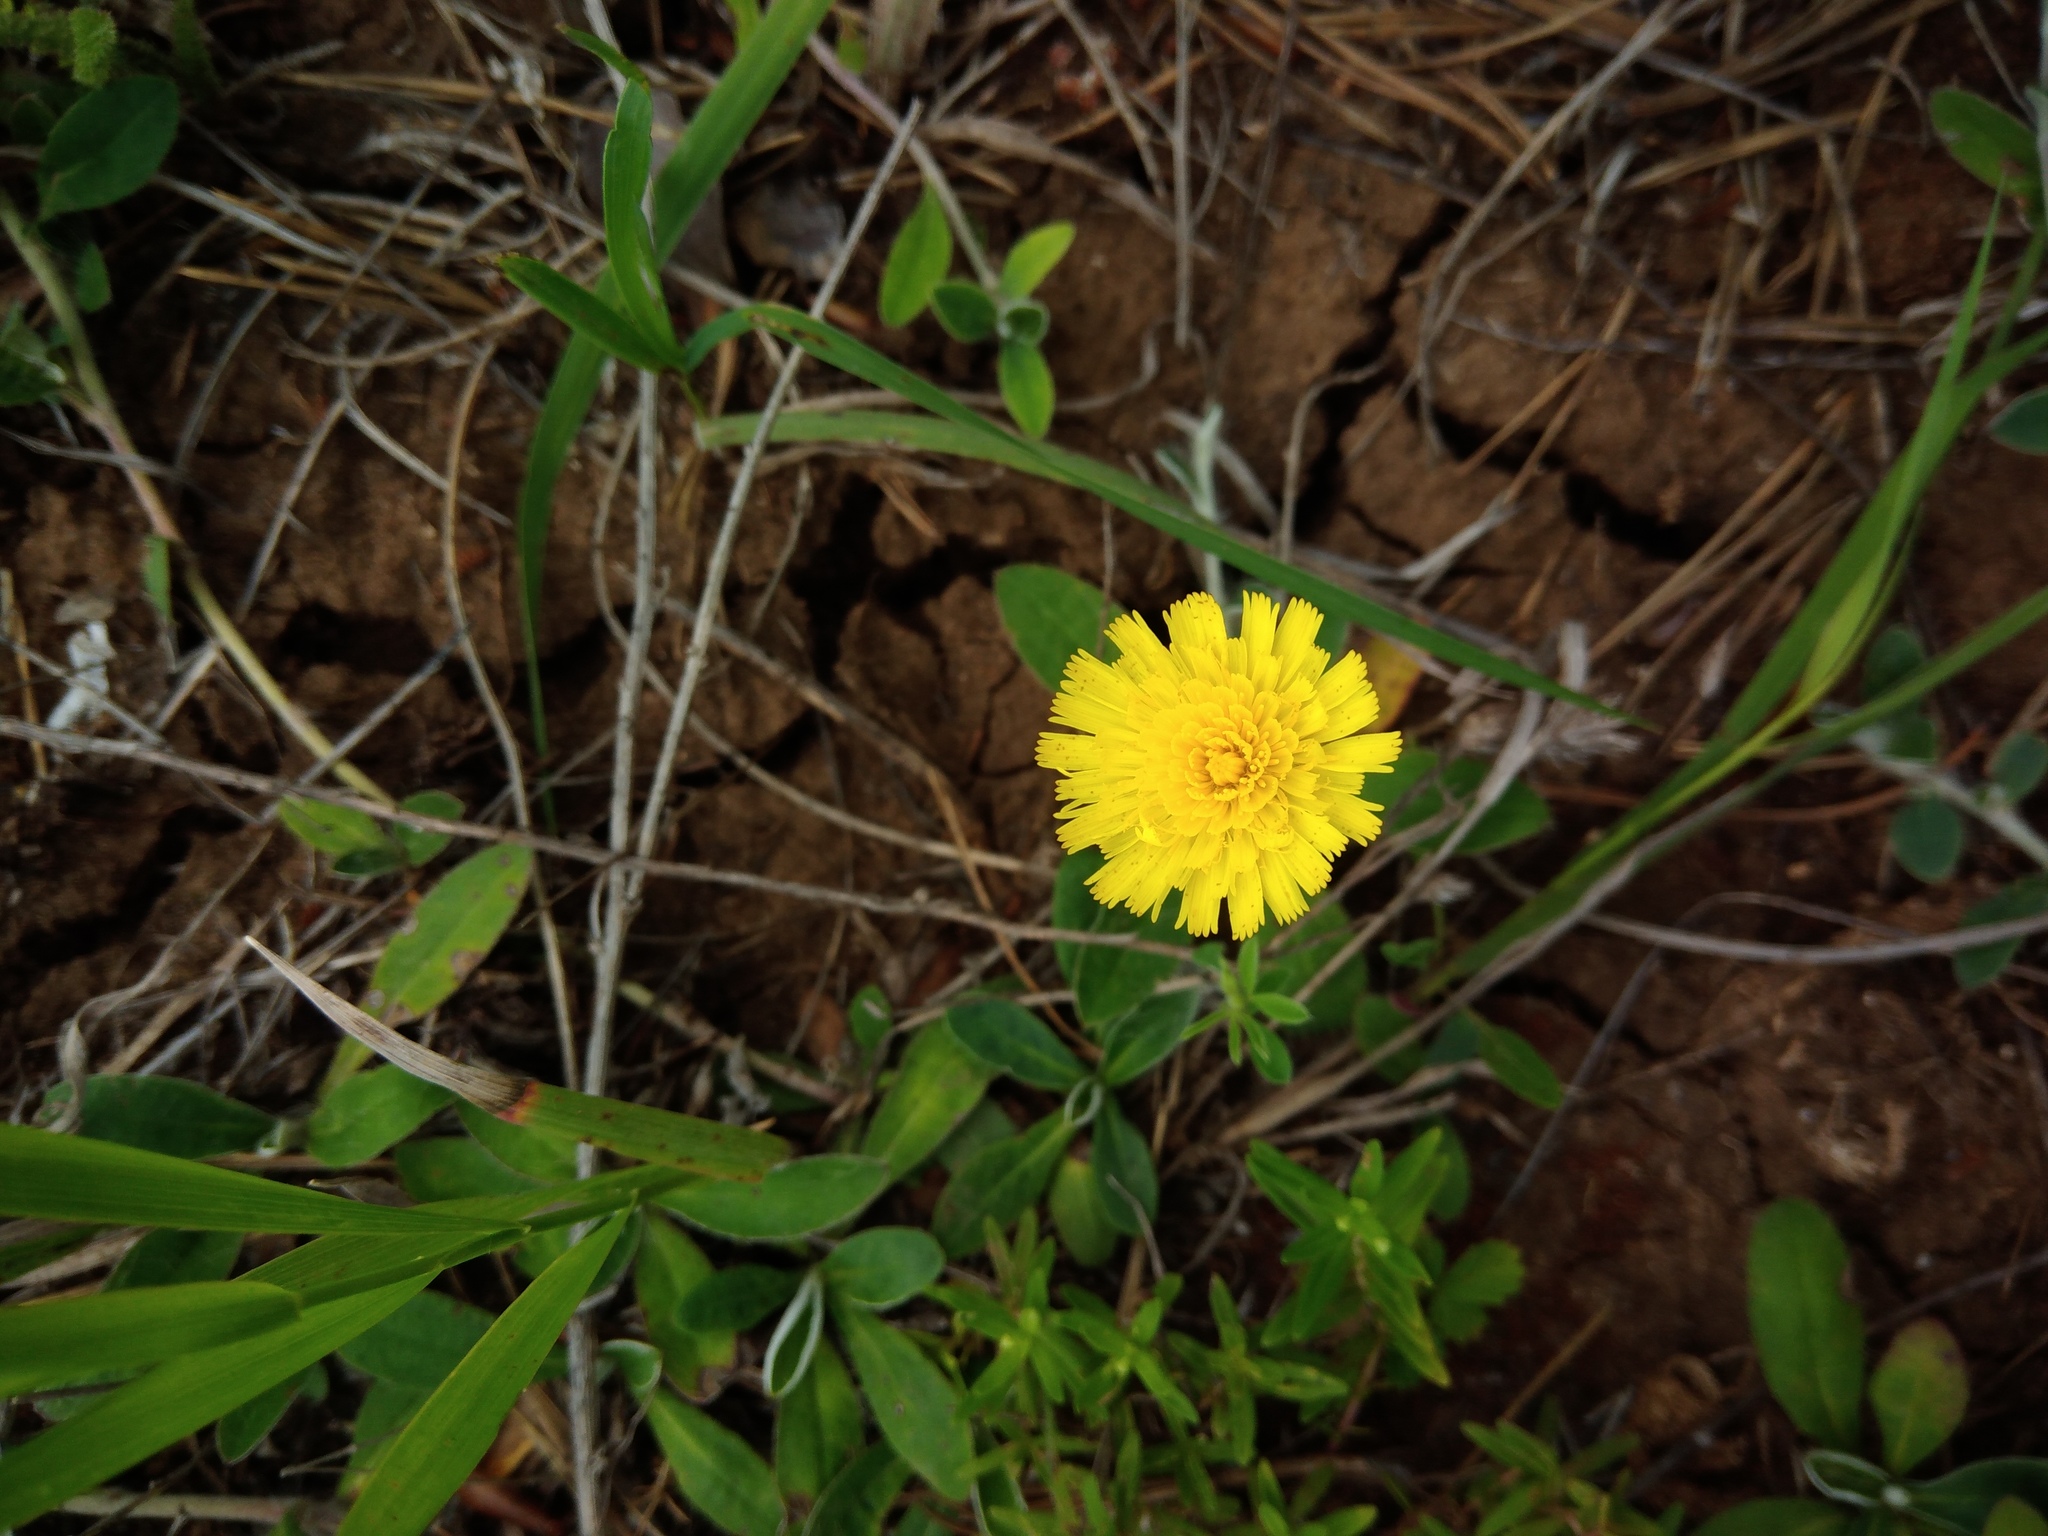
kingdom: Plantae
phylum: Tracheophyta
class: Magnoliopsida
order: Asterales
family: Asteraceae
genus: Pilosella
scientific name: Pilosella officinarum
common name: Mouse-ear hawkweed
